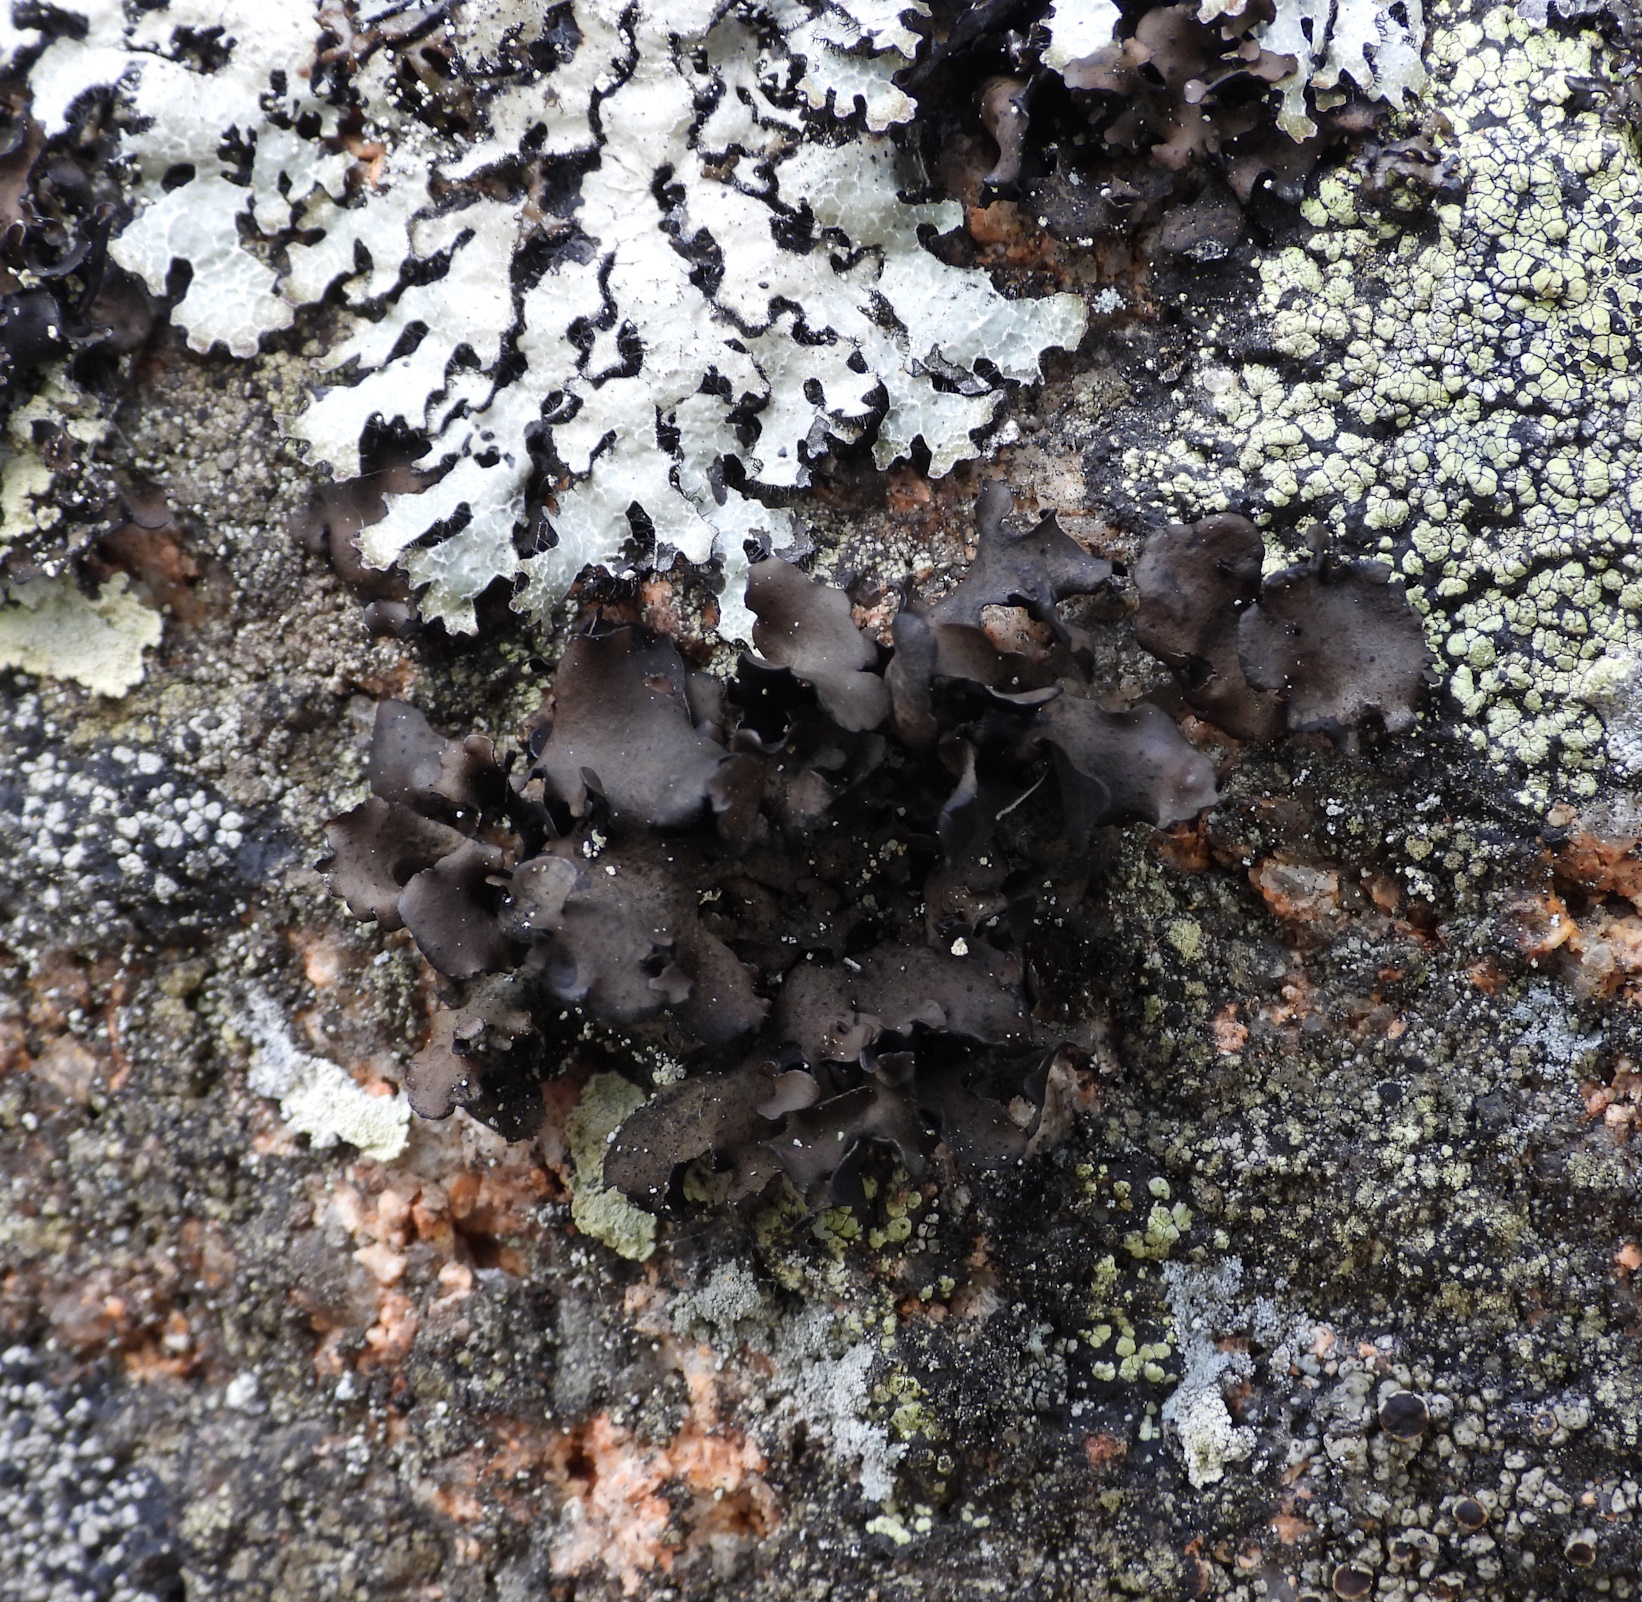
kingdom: Fungi
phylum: Ascomycota
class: Lecanoromycetes
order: Umbilicariales
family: Umbilicariaceae
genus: Umbilicaria
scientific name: Umbilicaria polyphylla
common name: Petalled rocktripe lichen
